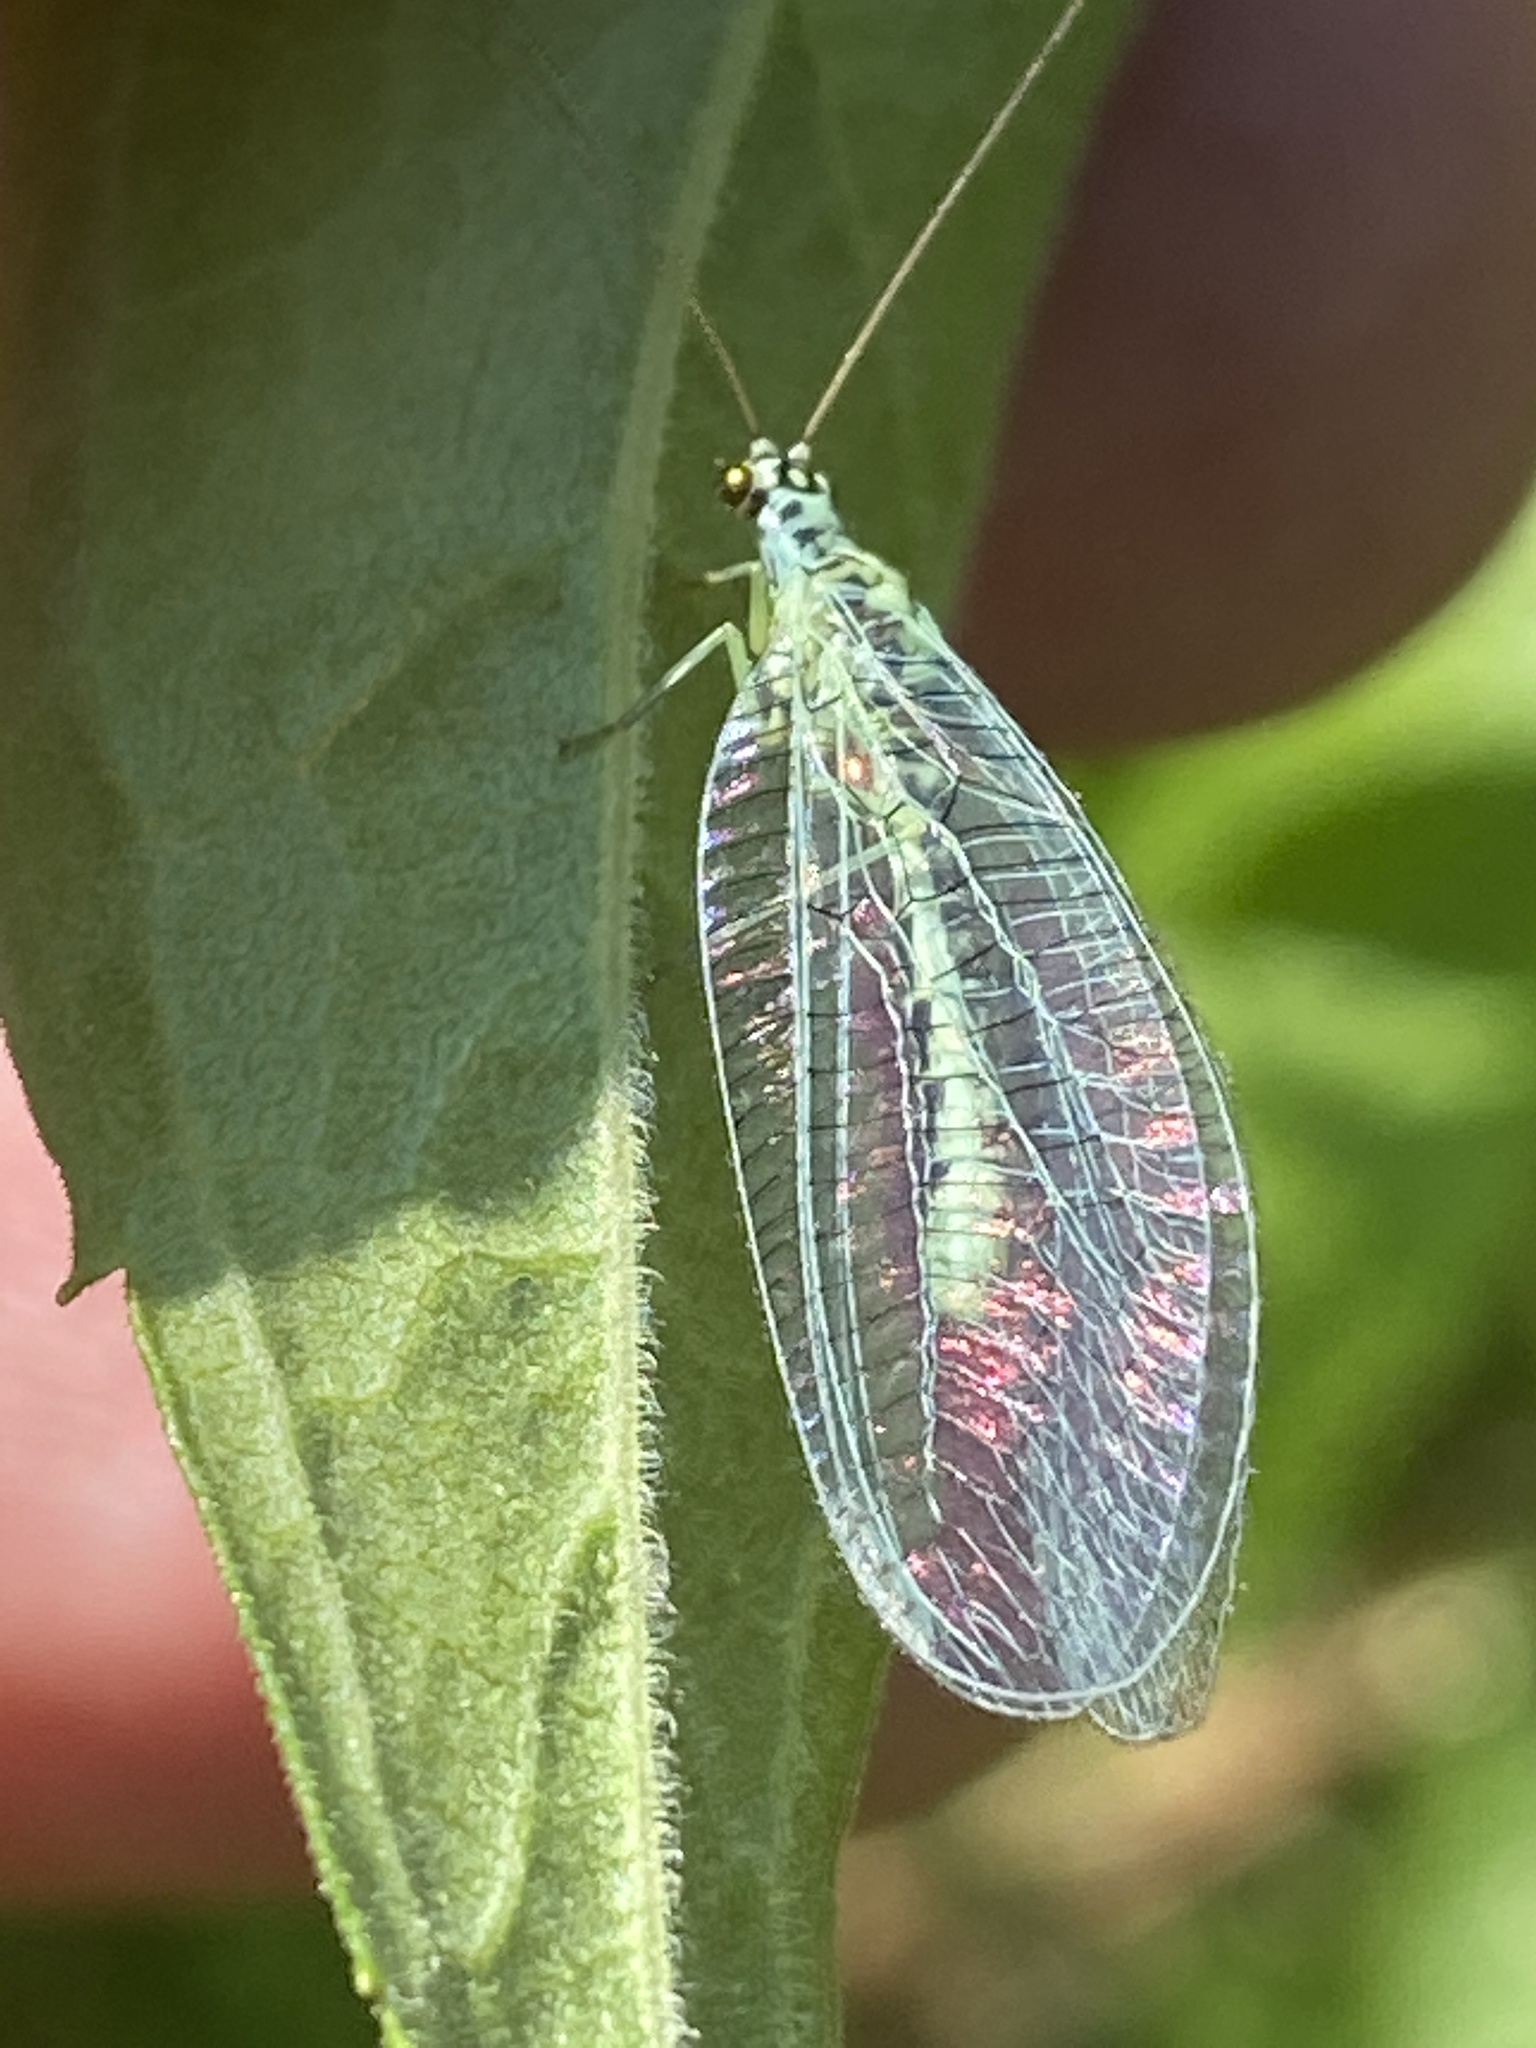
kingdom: Animalia
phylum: Arthropoda
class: Insecta
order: Neuroptera
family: Chrysopidae
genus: Chrysopa
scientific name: Chrysopa perla
